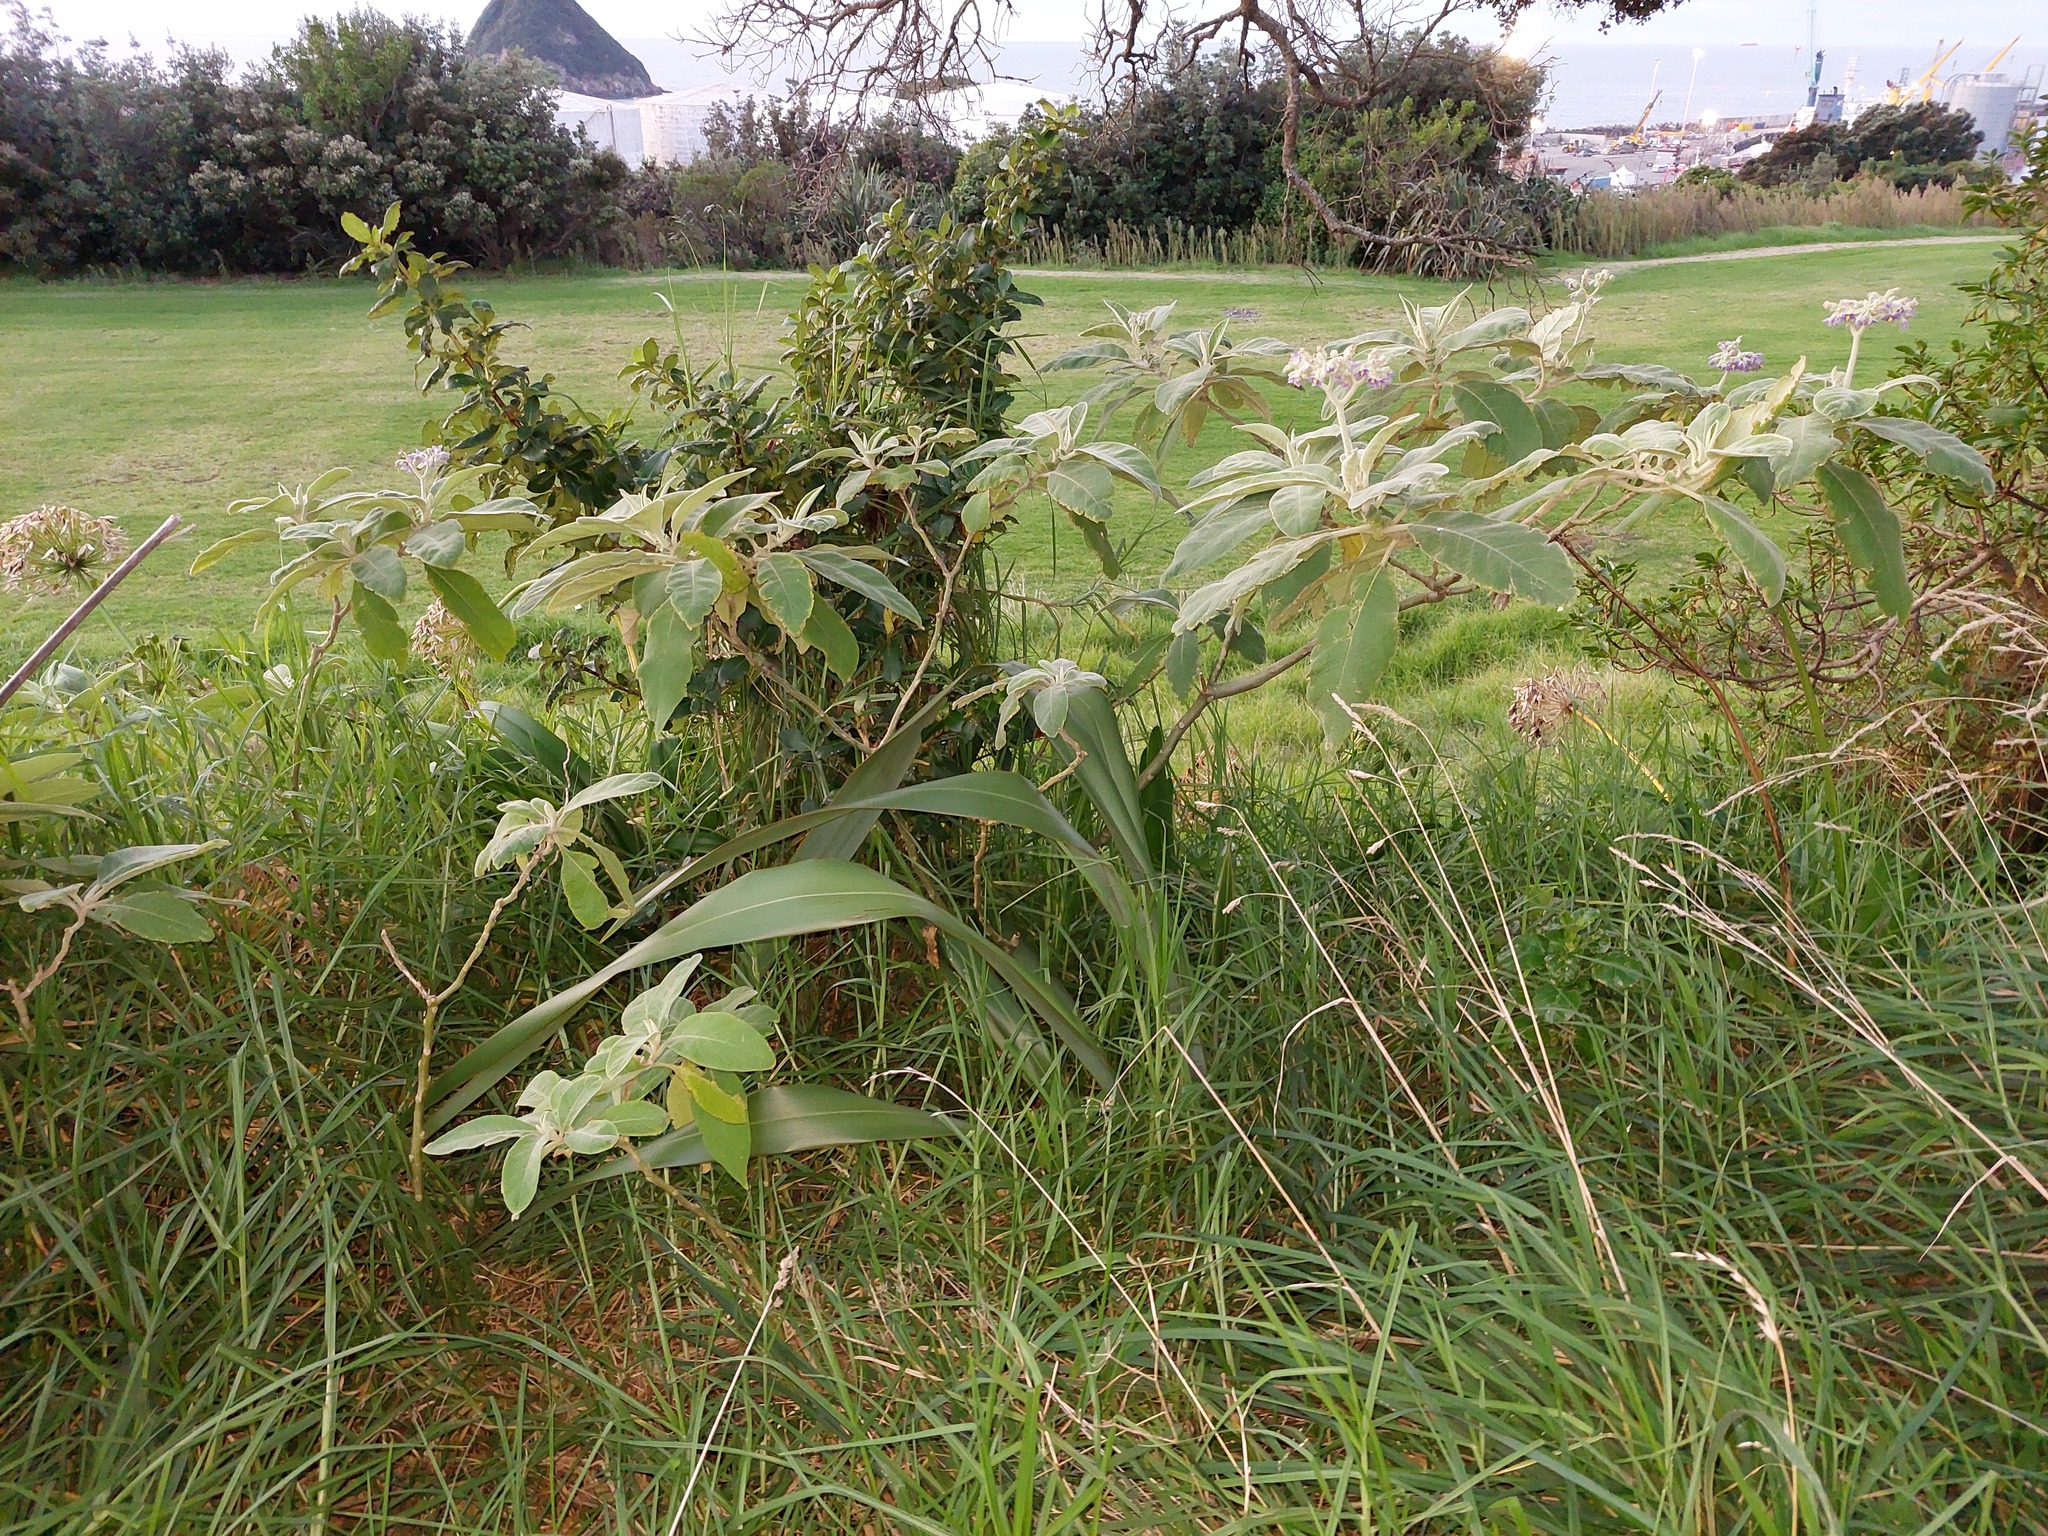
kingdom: Plantae
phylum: Tracheophyta
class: Magnoliopsida
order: Solanales
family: Solanaceae
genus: Solanum
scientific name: Solanum mauritianum
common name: Earleaf nightshade
